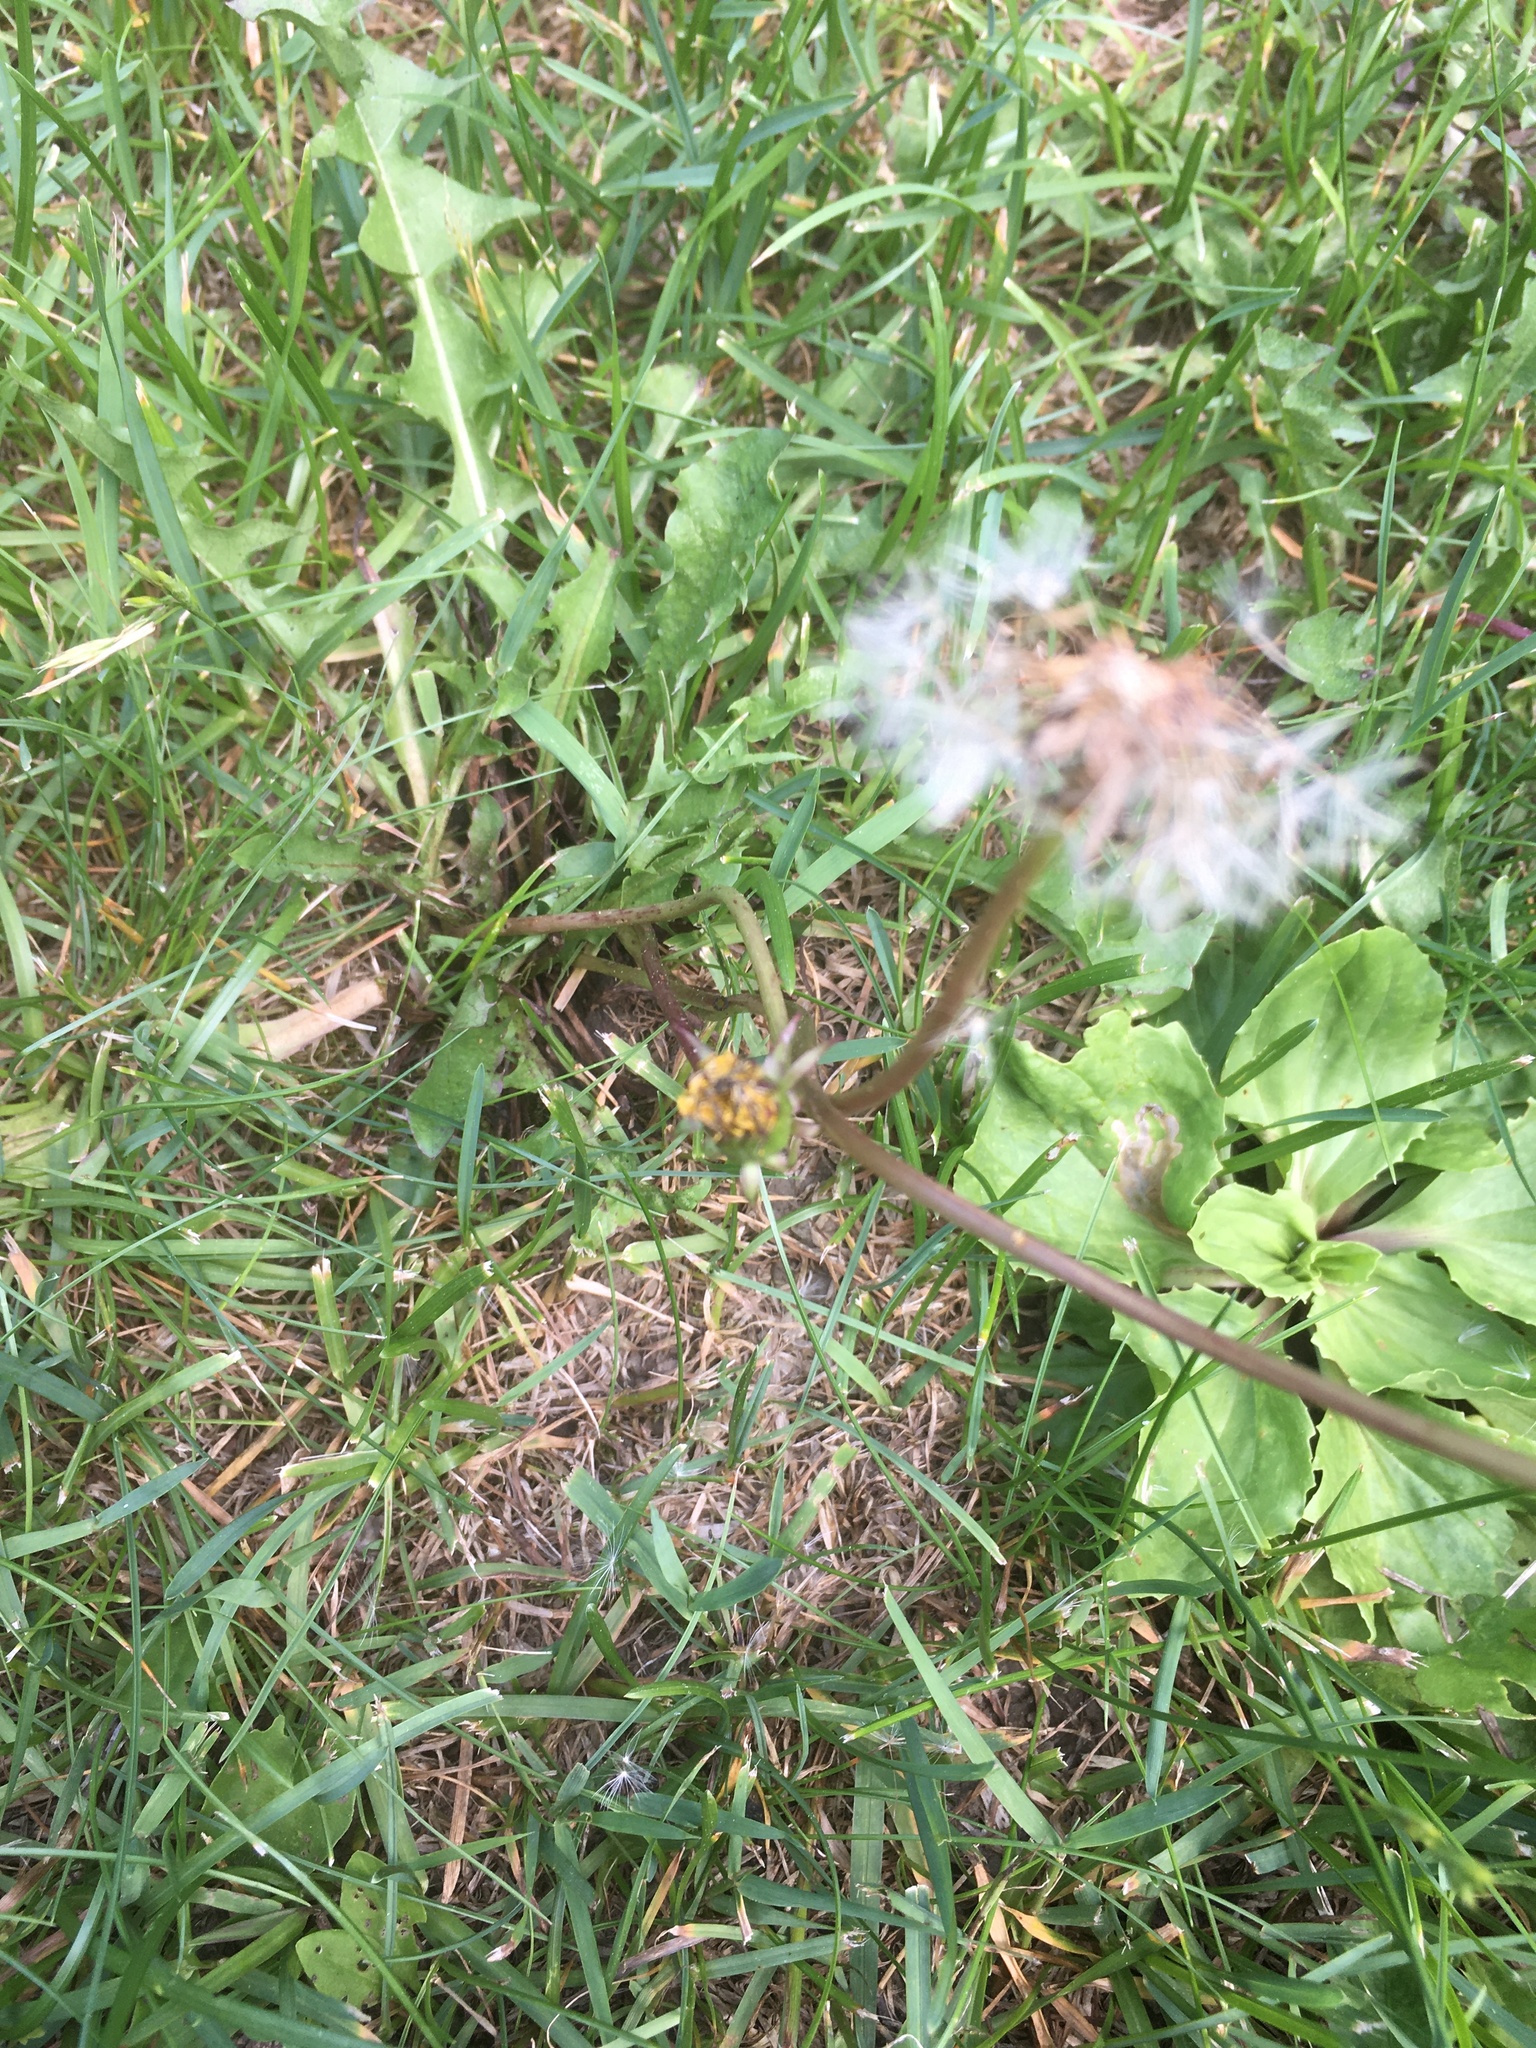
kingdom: Plantae
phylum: Tracheophyta
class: Magnoliopsida
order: Asterales
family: Asteraceae
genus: Taraxacum
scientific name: Taraxacum officinale
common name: Common dandelion
